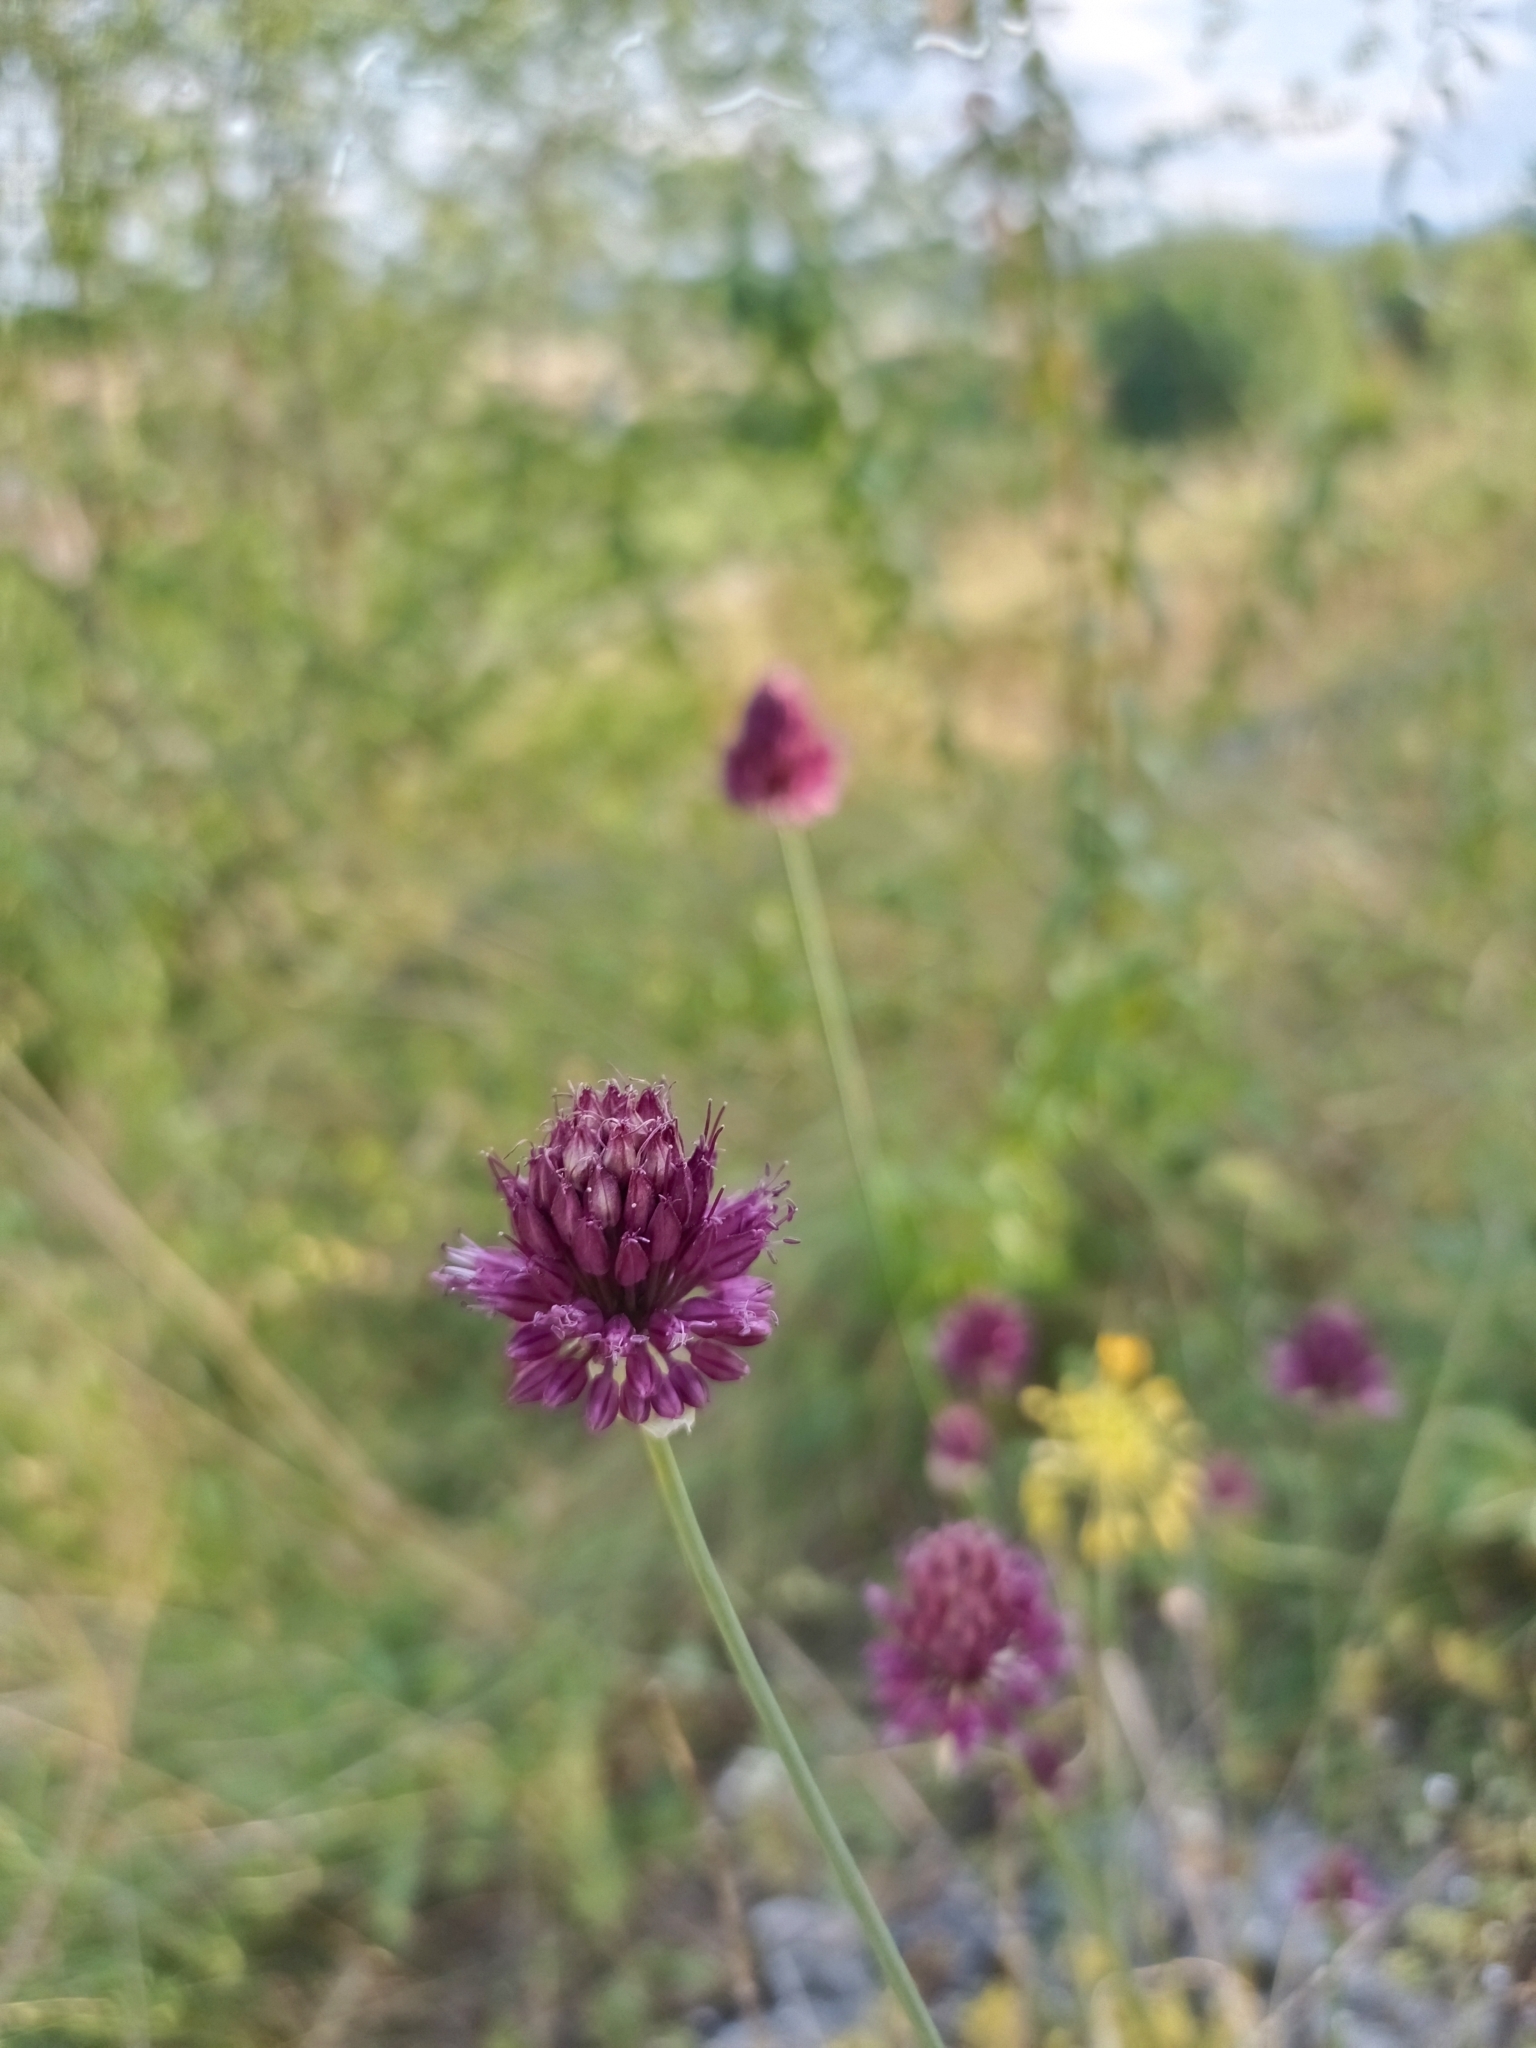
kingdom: Plantae
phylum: Tracheophyta
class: Liliopsida
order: Asparagales
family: Amaryllidaceae
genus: Allium
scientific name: Allium sphaerocephalon
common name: Round-headed leek
